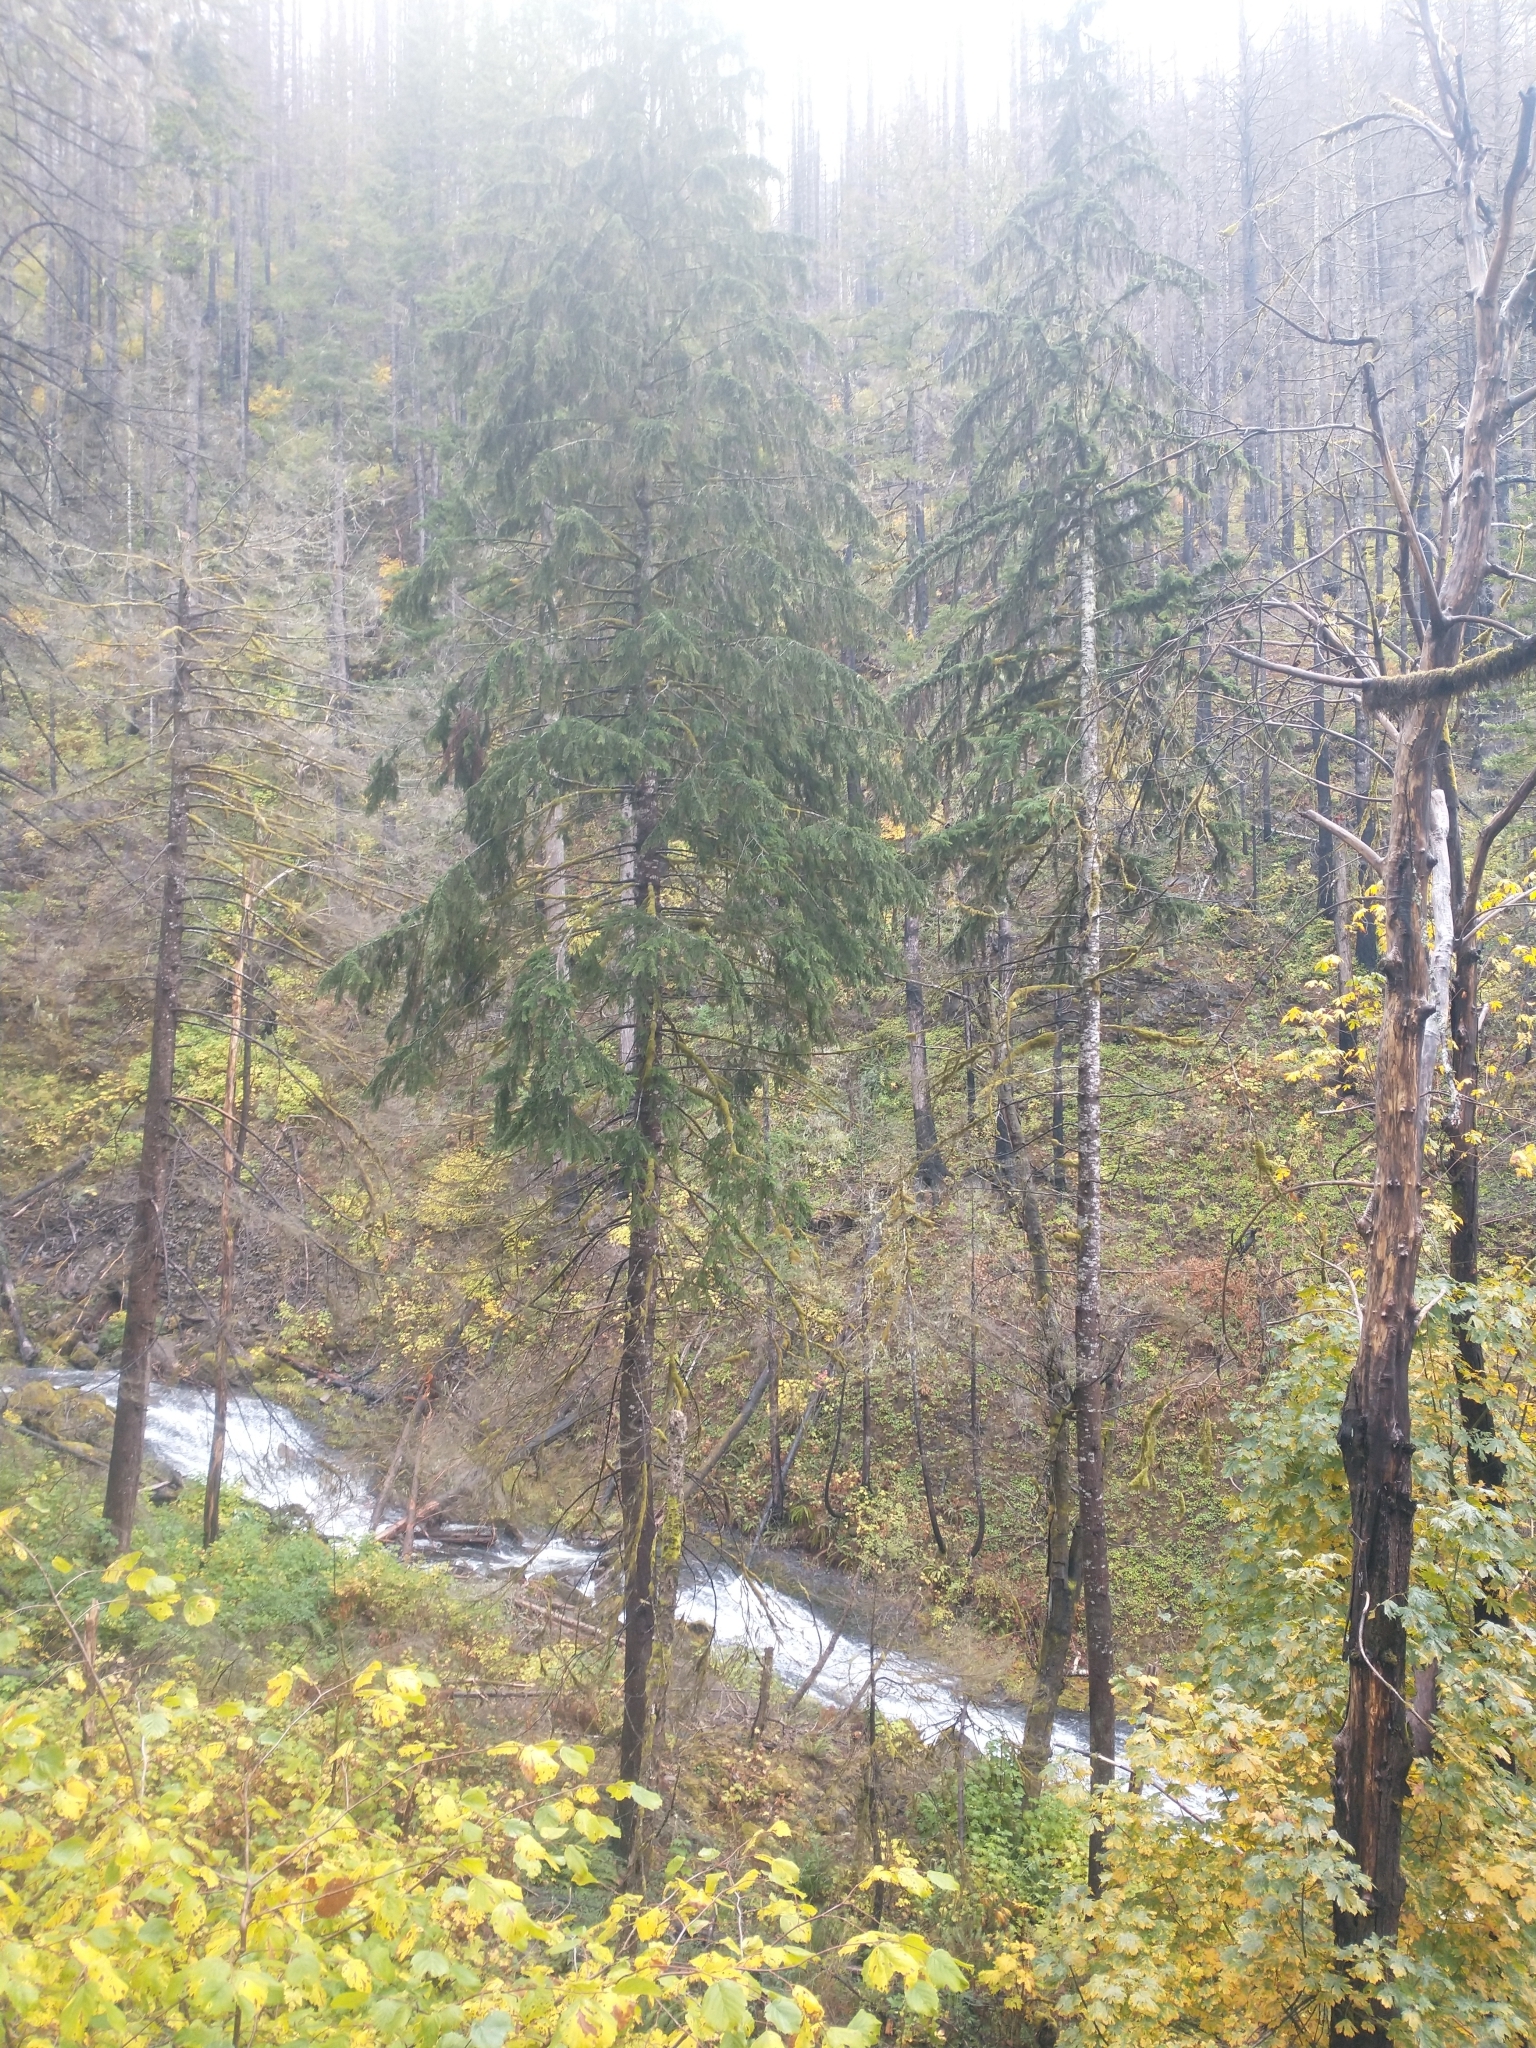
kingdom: Plantae
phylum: Tracheophyta
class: Pinopsida
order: Pinales
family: Pinaceae
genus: Tsuga
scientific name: Tsuga heterophylla
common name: Western hemlock
